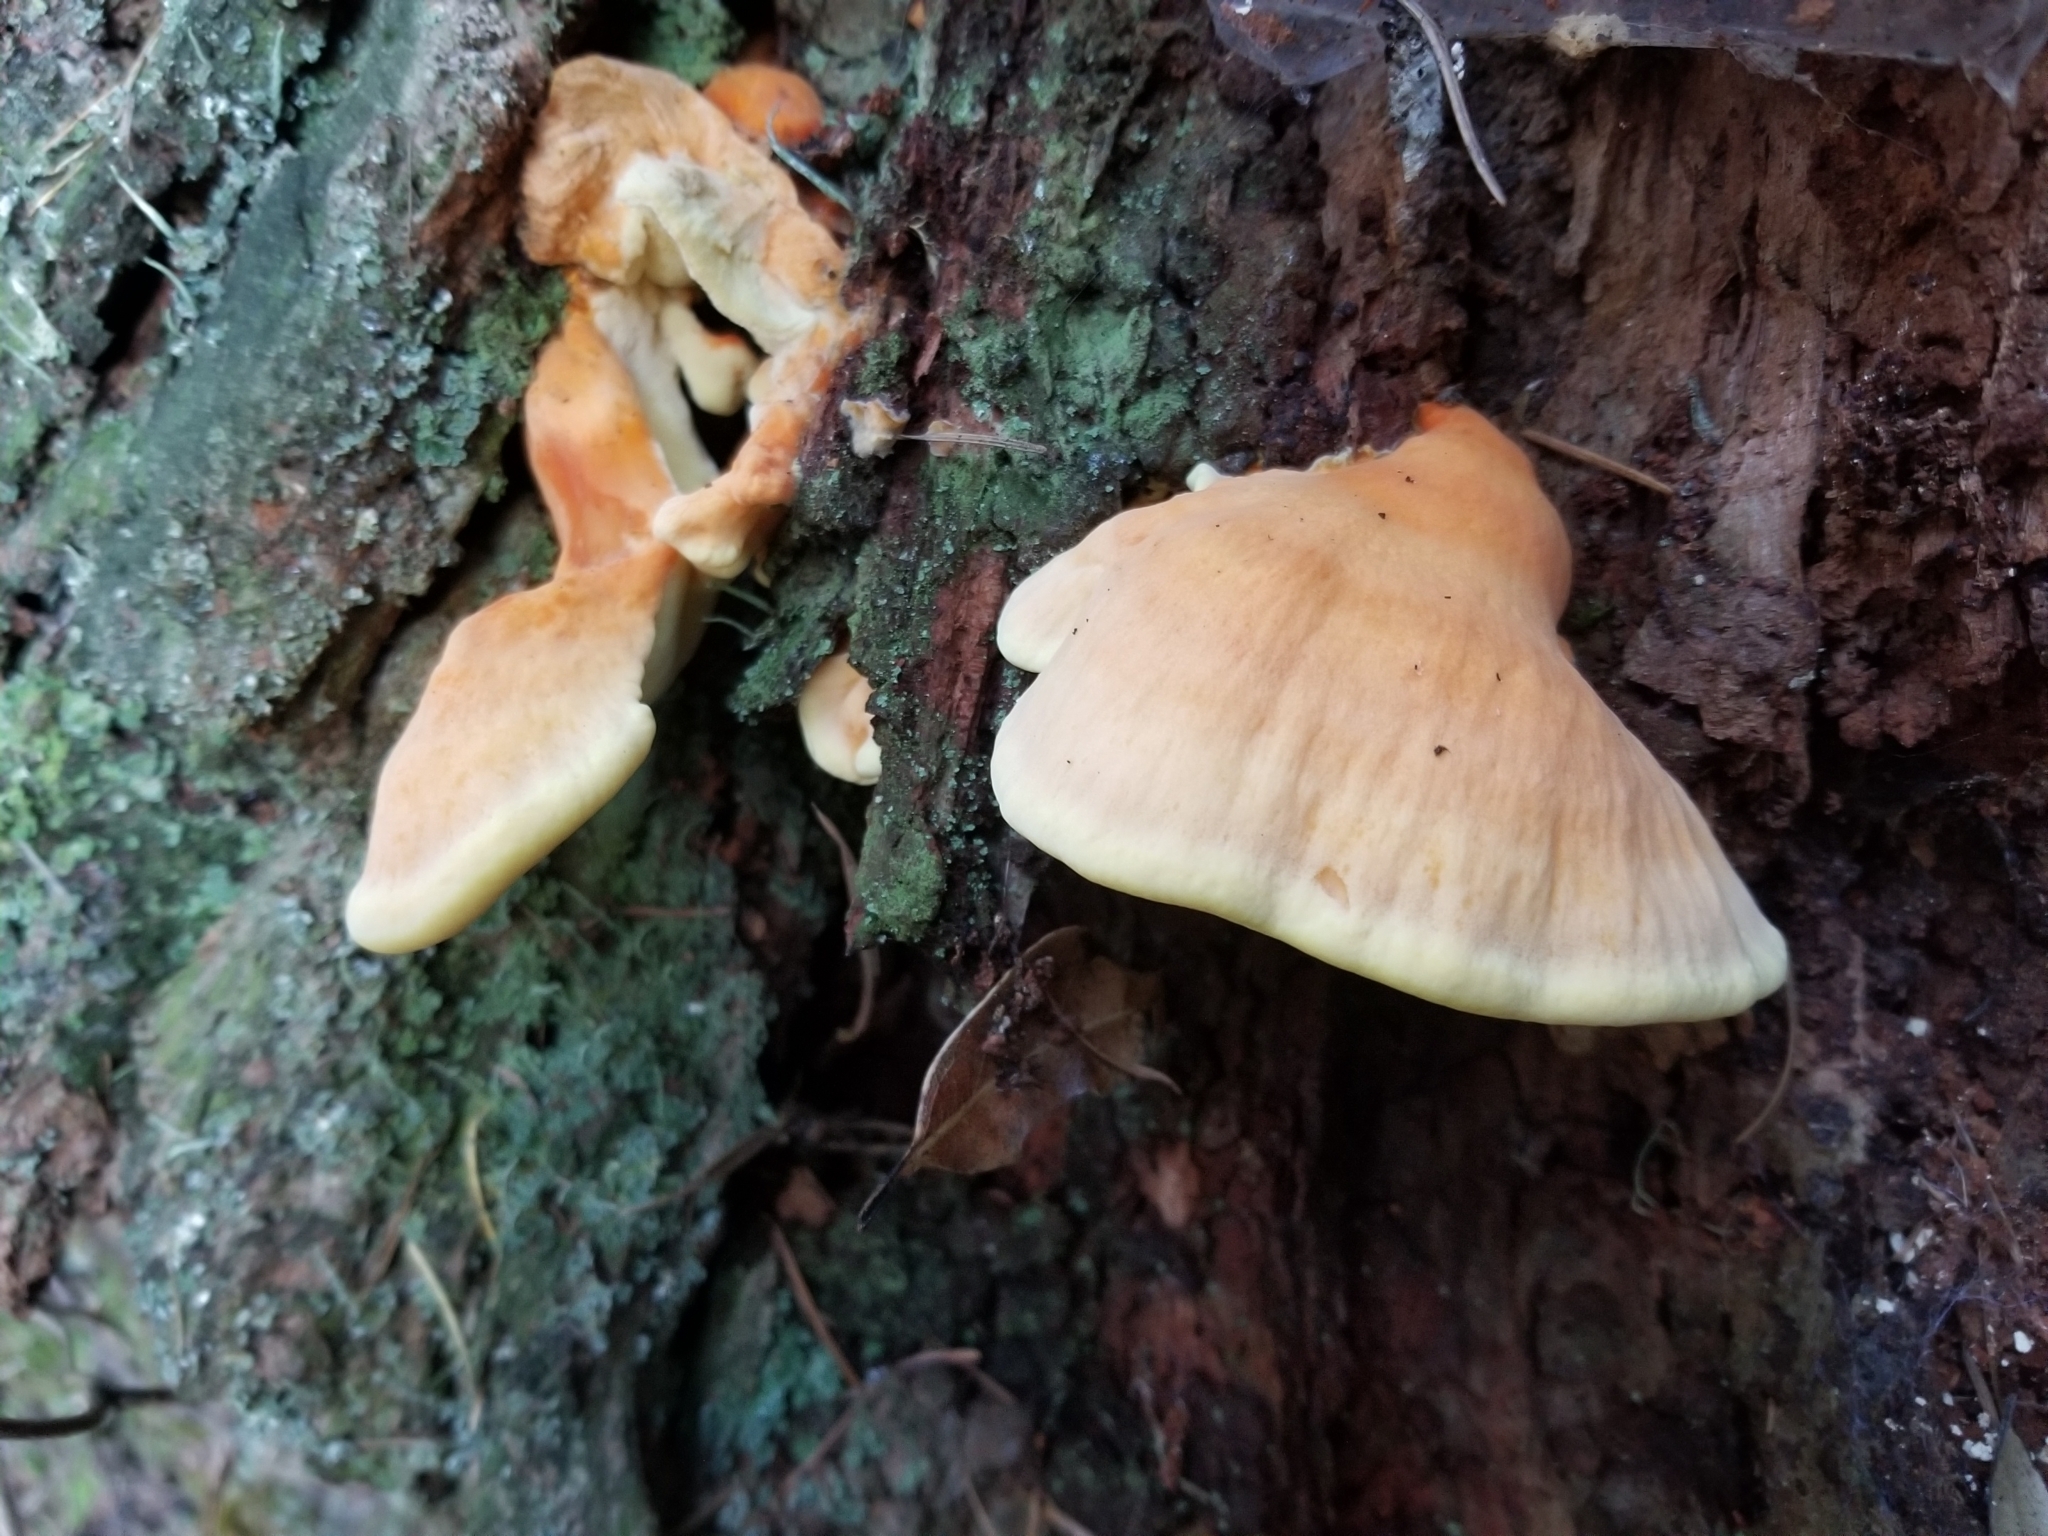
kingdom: Fungi
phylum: Basidiomycota
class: Agaricomycetes
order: Polyporales
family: Laetiporaceae
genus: Laetiporus
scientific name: Laetiporus conifericola
